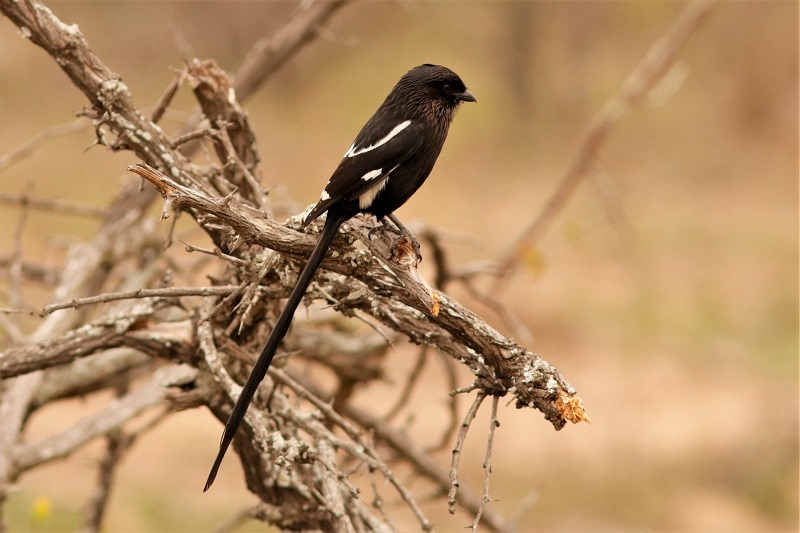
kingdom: Animalia
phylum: Chordata
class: Aves
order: Passeriformes
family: Laniidae
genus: Urolestes
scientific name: Urolestes melanoleucus
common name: Magpie shrike
